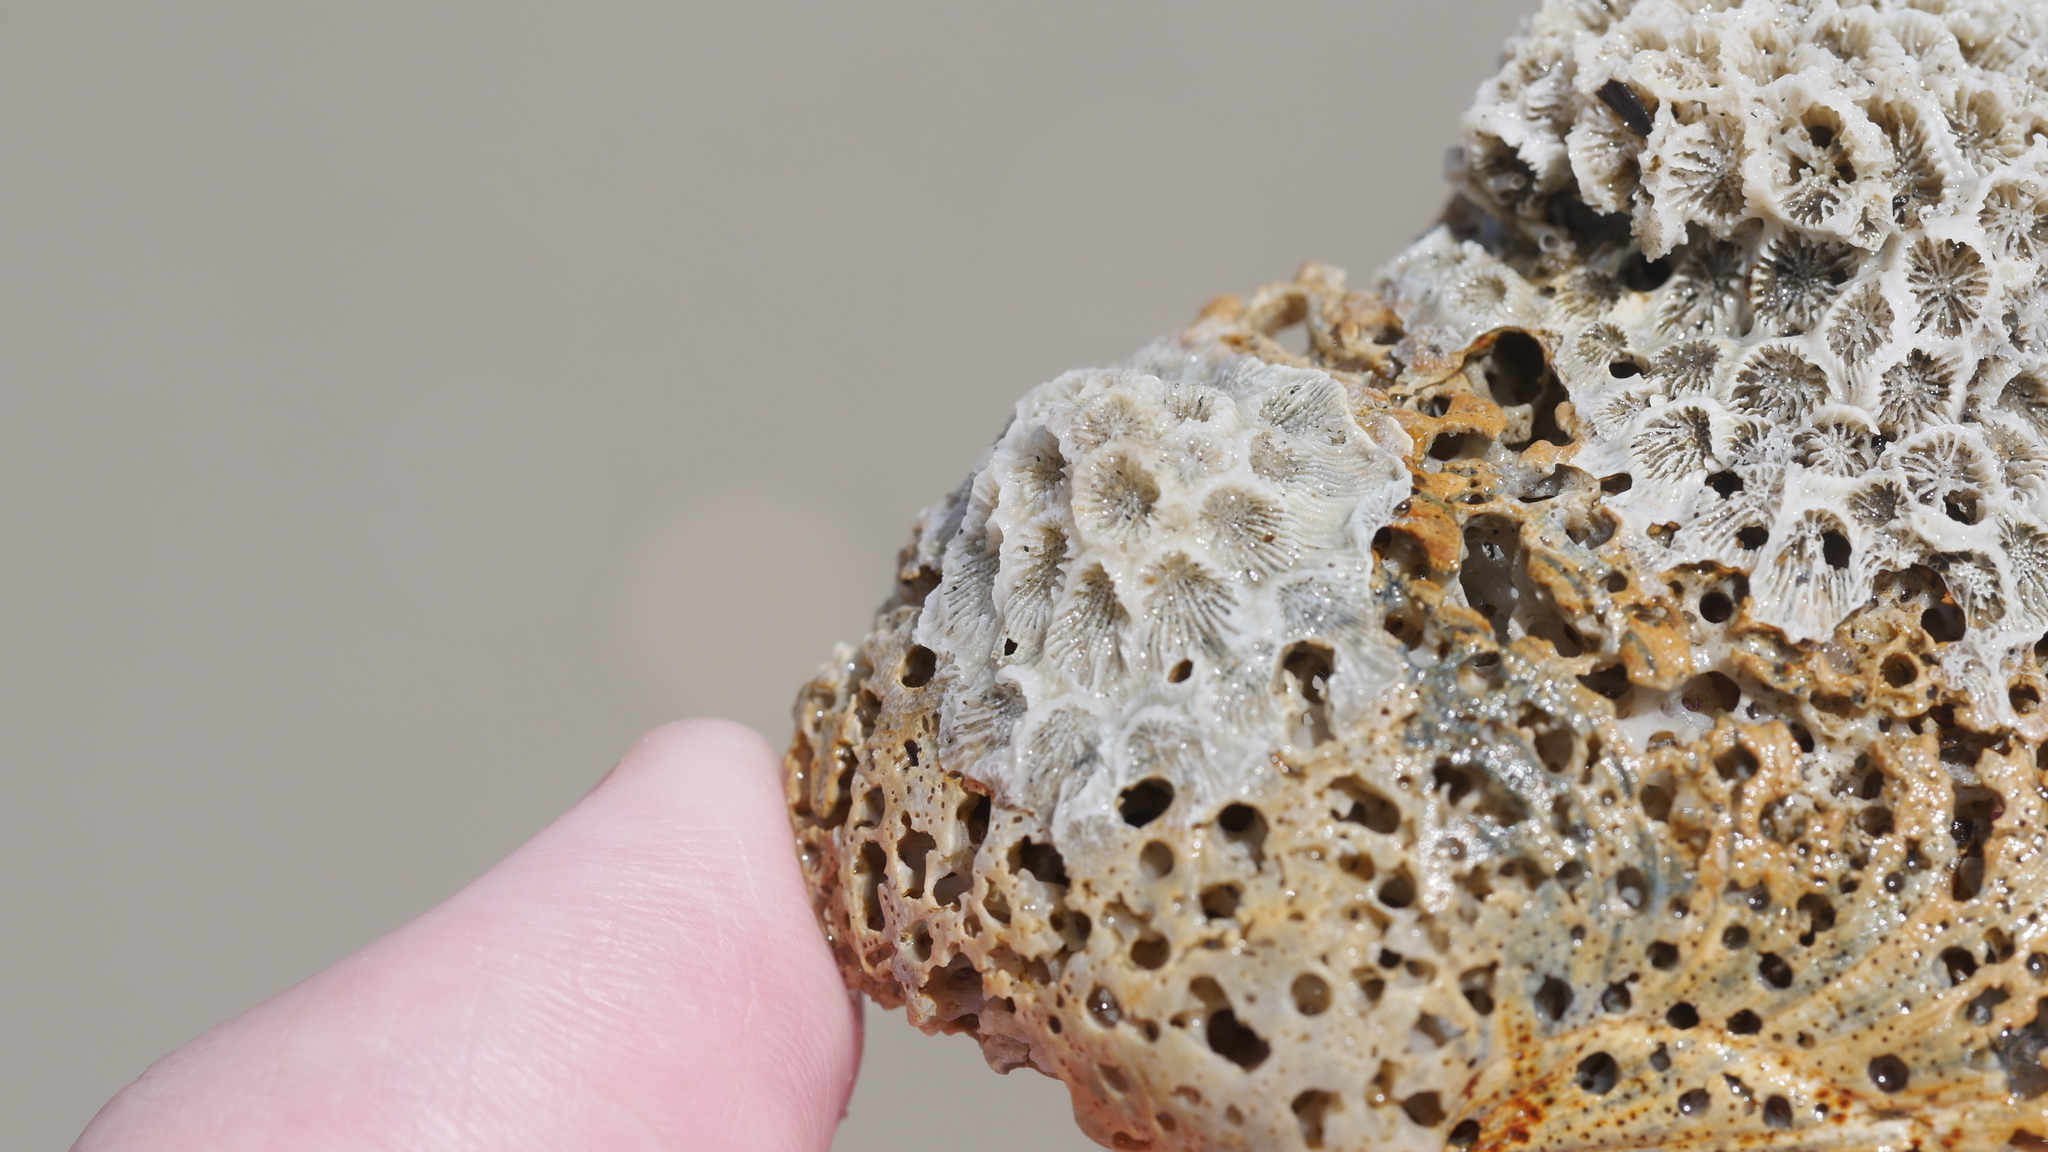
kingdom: Animalia
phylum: Cnidaria
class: Anthozoa
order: Scleractinia
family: Astrangiidae
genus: Astrangia
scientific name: Astrangia poculata
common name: Northern star coral
